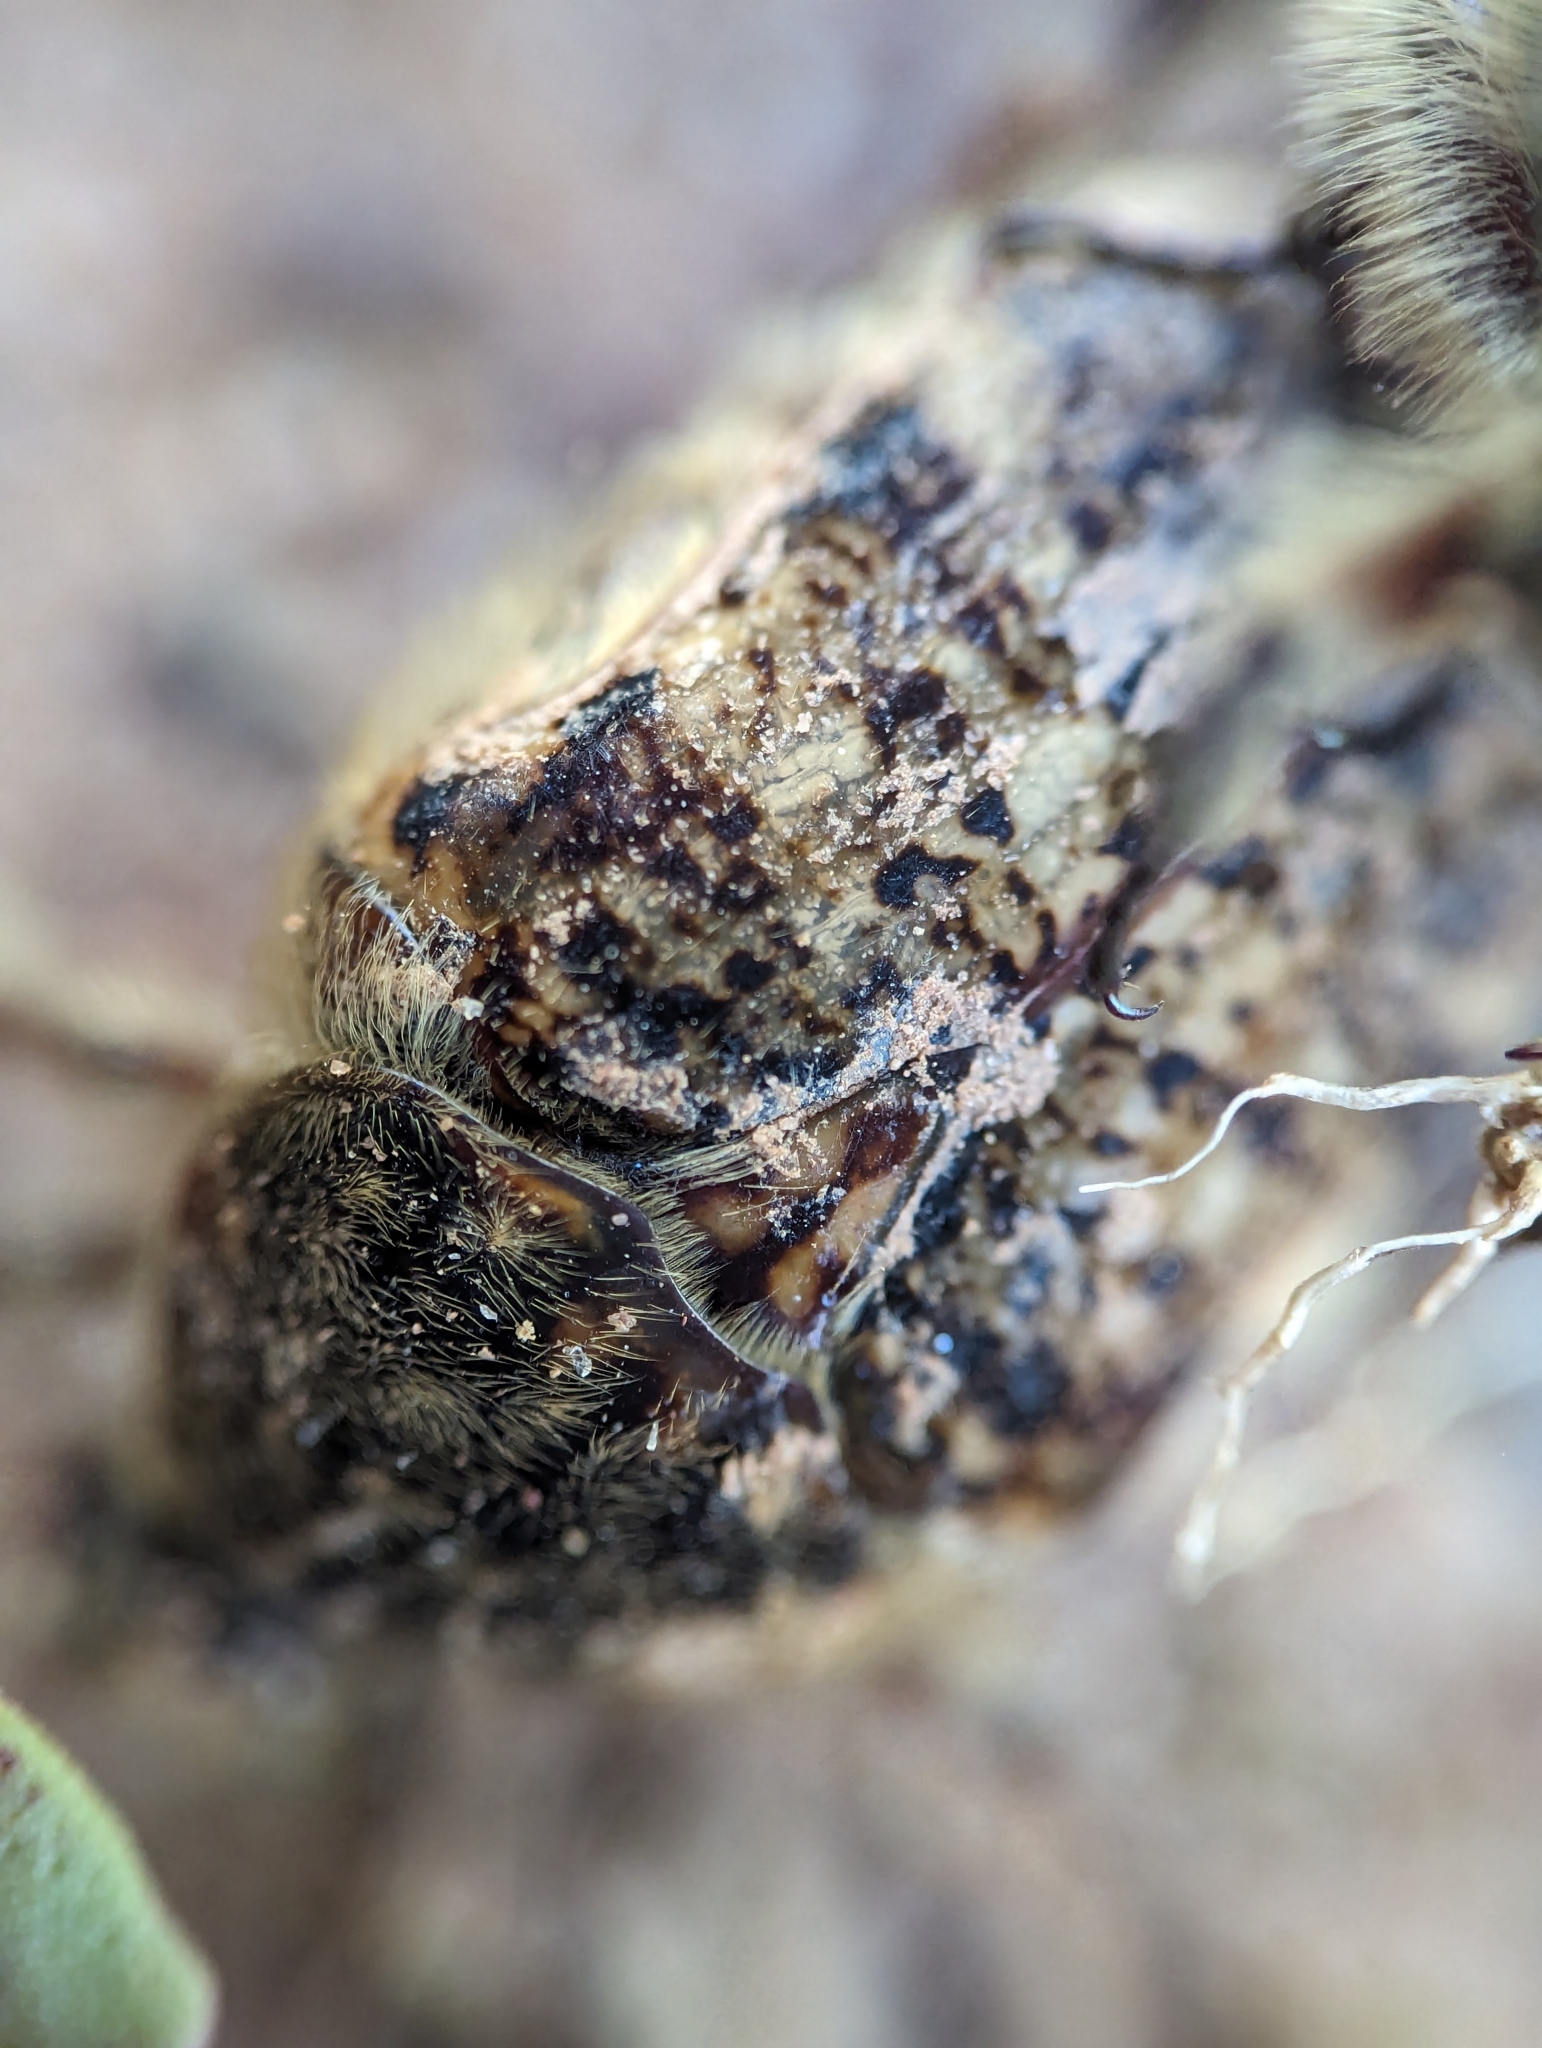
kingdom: Animalia
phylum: Arthropoda
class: Insecta
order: Coleoptera
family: Scarabaeidae
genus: Euphoria
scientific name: Euphoria inda
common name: Bumble flower beetle
